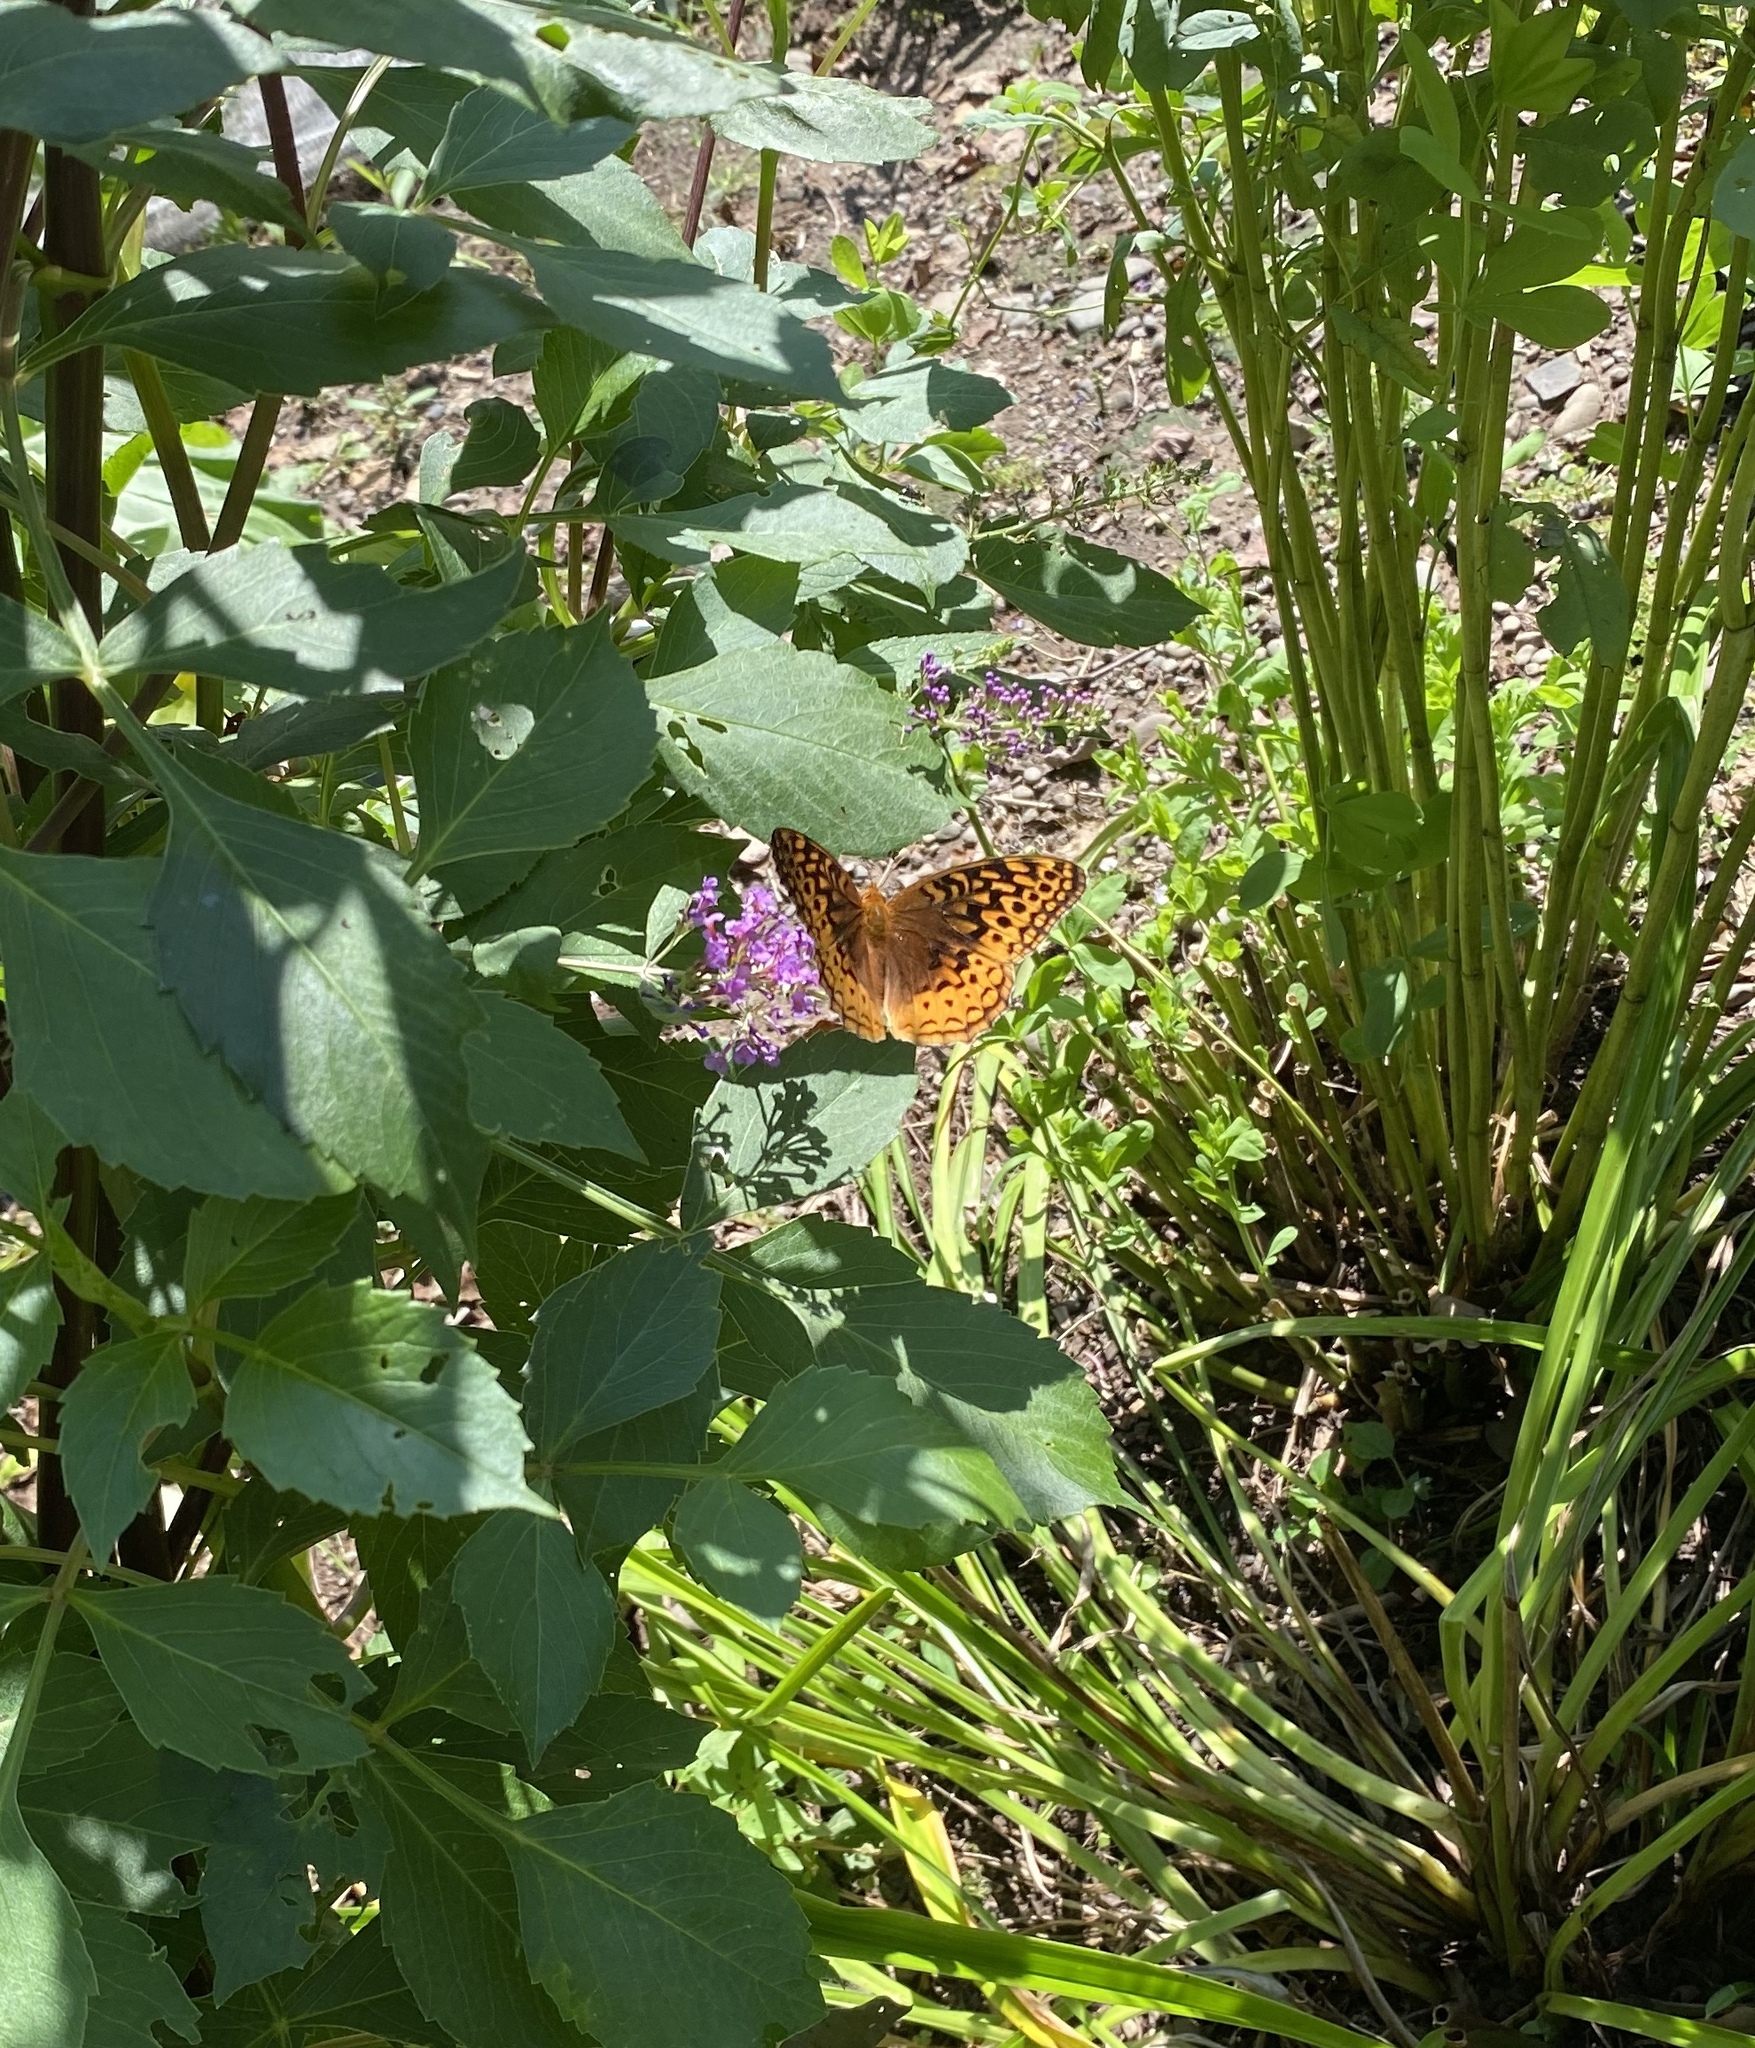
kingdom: Animalia
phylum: Arthropoda
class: Insecta
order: Lepidoptera
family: Nymphalidae
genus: Speyeria
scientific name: Speyeria cybele
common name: Great spangled fritillary
